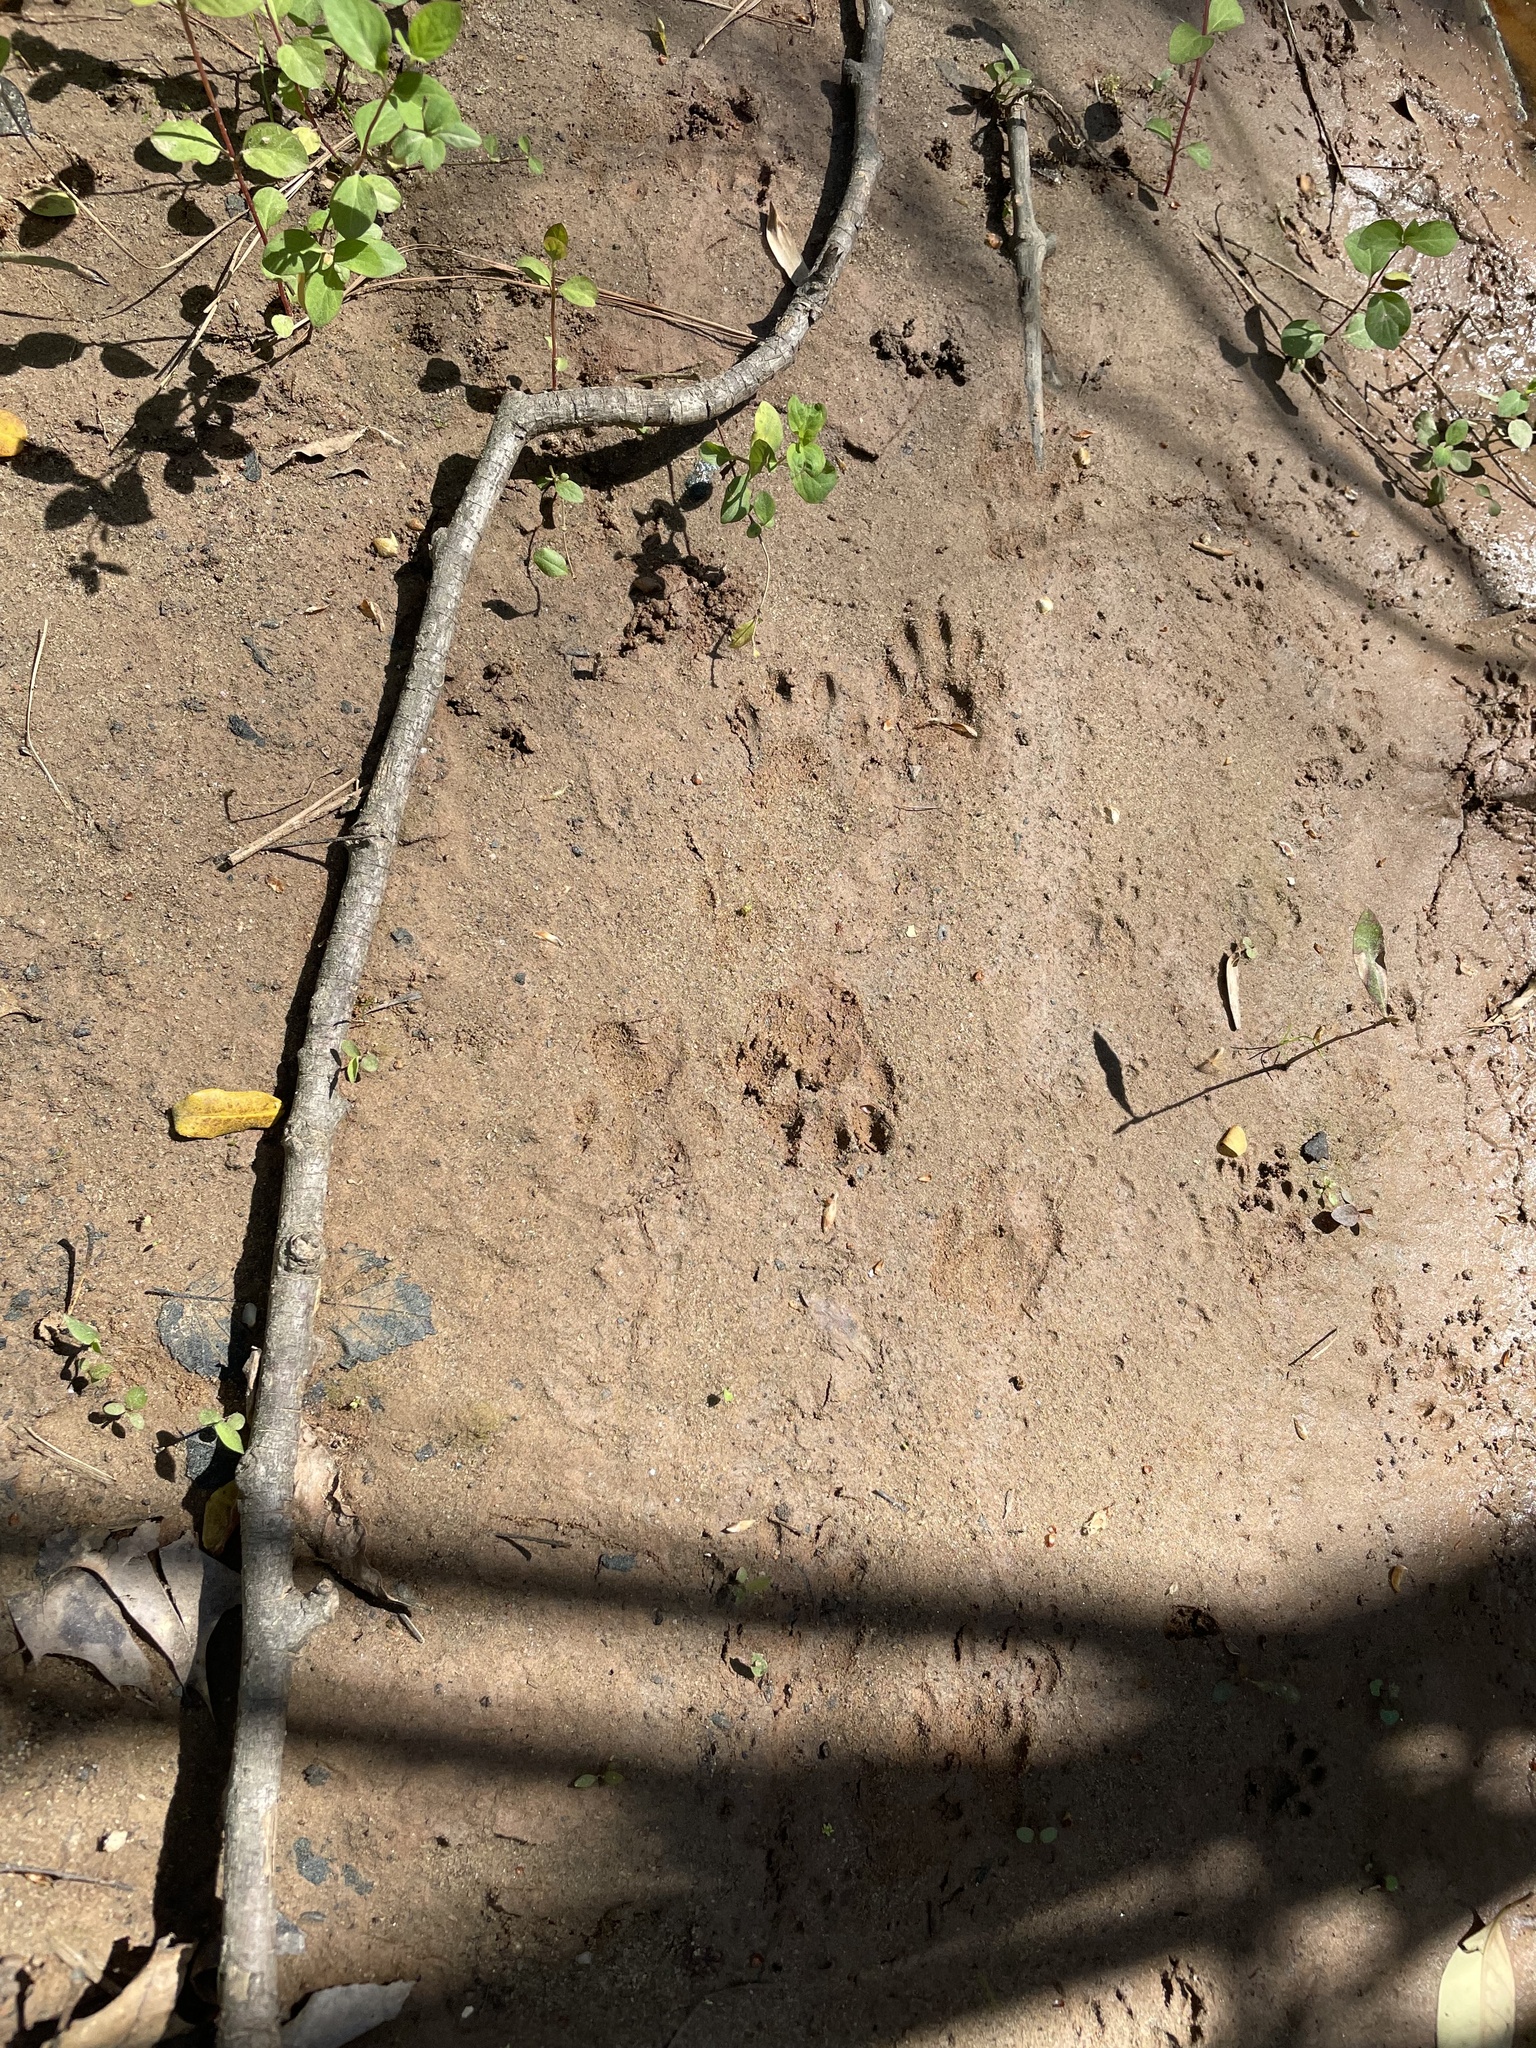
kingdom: Animalia
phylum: Chordata
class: Mammalia
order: Carnivora
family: Procyonidae
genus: Procyon
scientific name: Procyon lotor
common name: Raccoon
